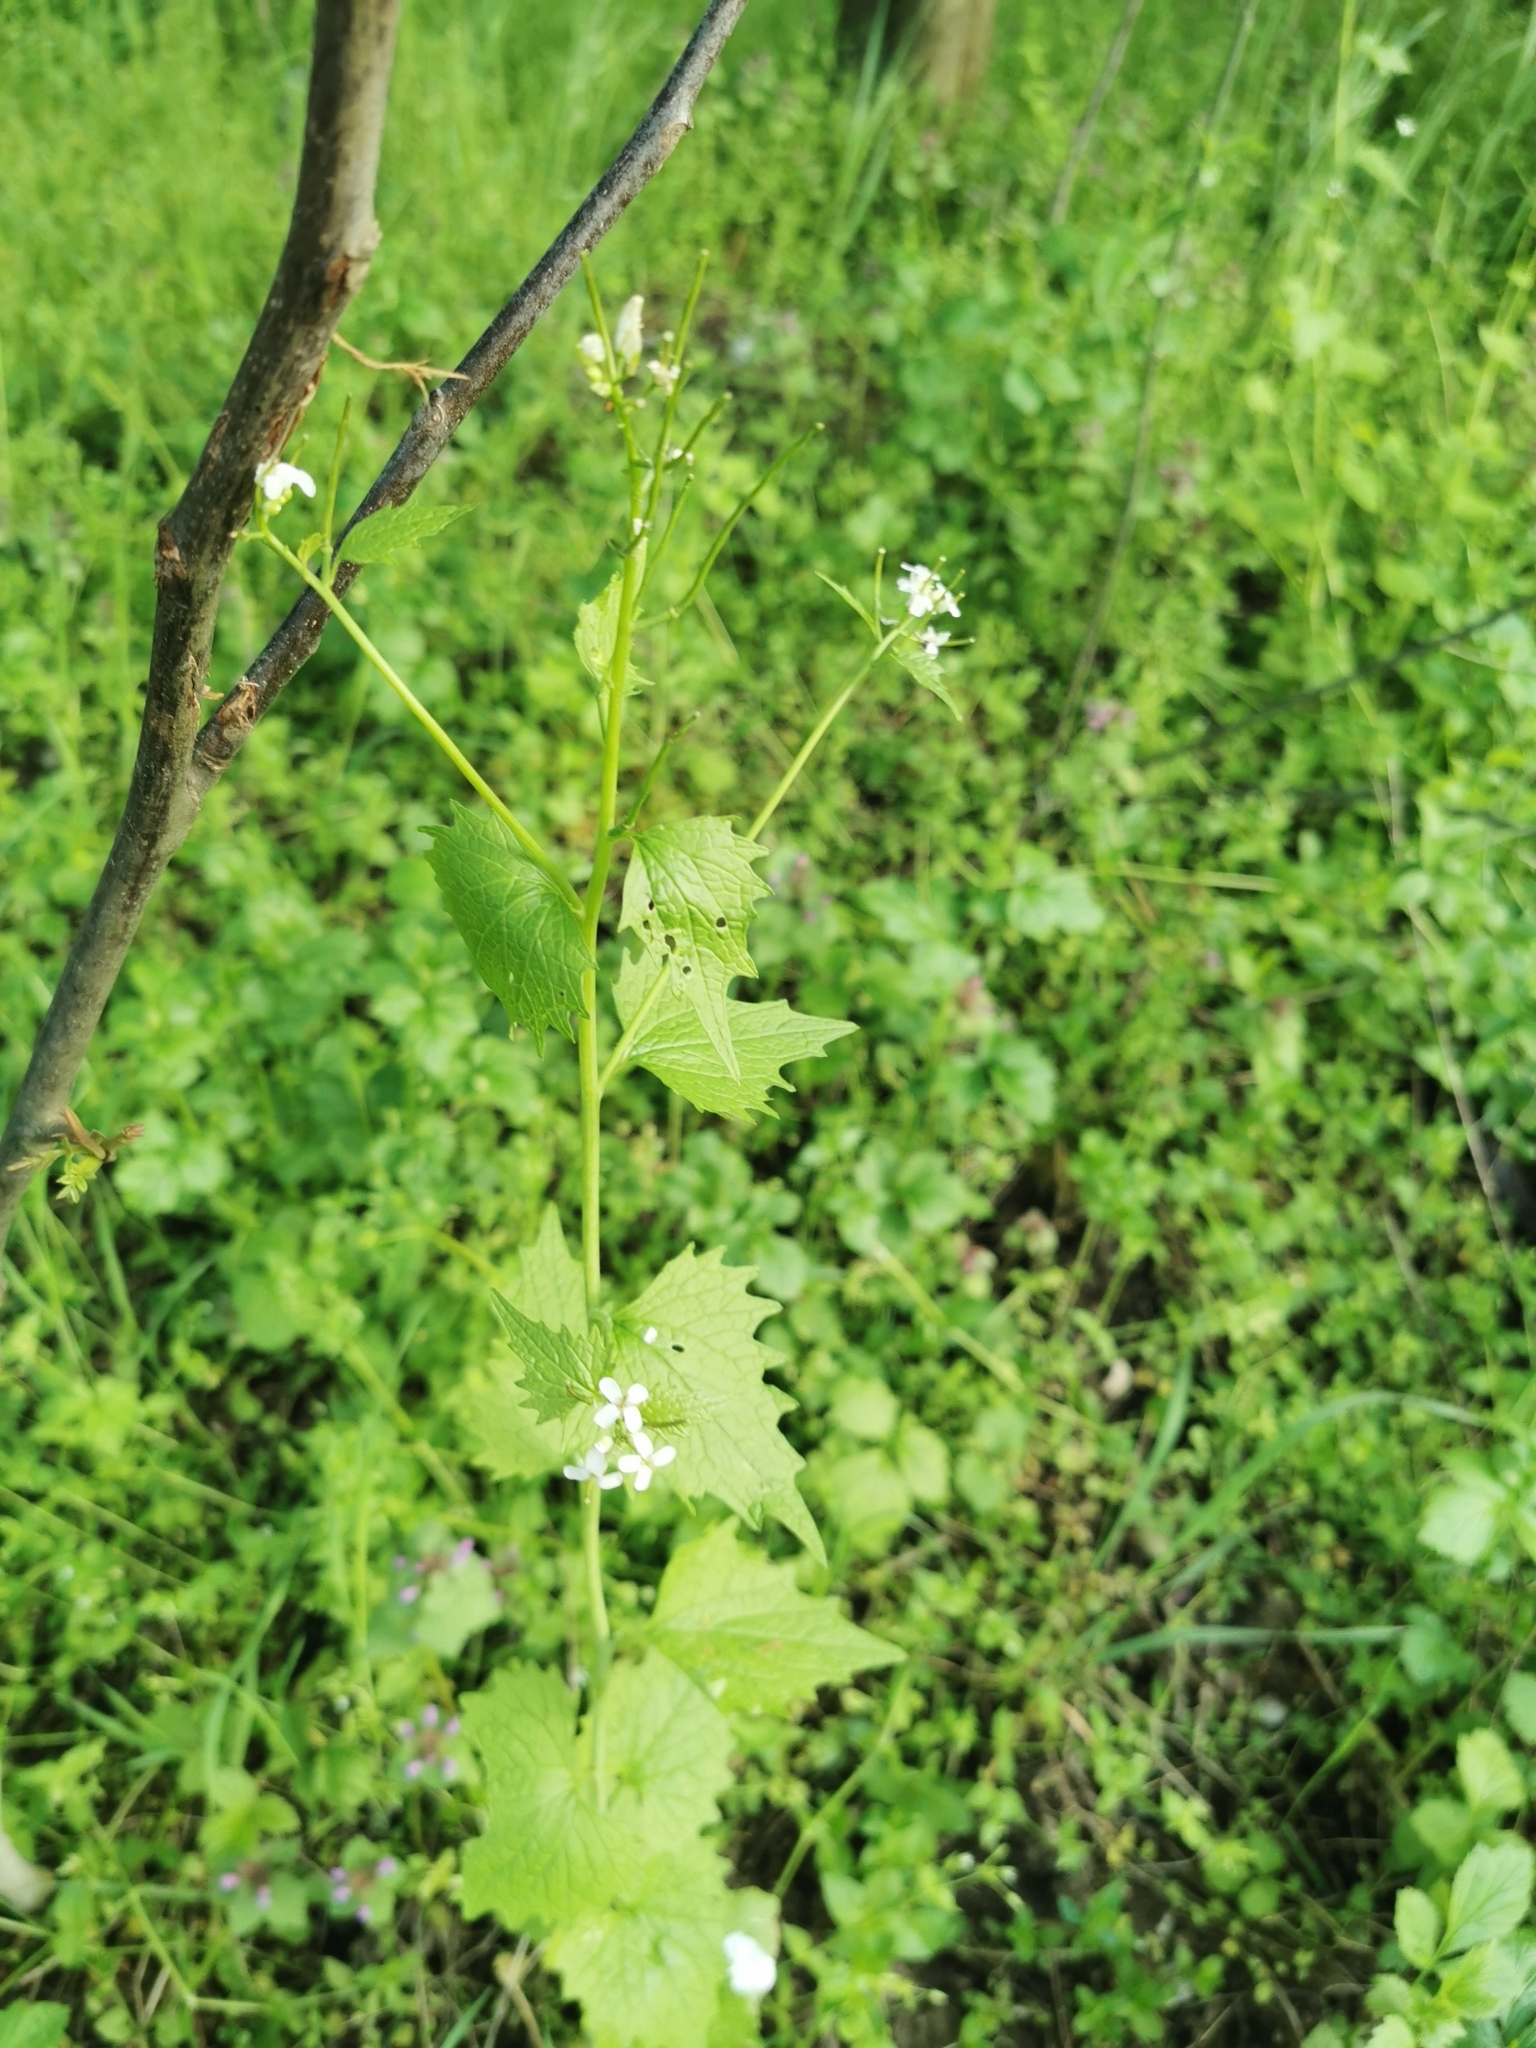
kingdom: Plantae
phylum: Tracheophyta
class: Magnoliopsida
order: Brassicales
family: Brassicaceae
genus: Alliaria
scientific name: Alliaria petiolata
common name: Garlic mustard
